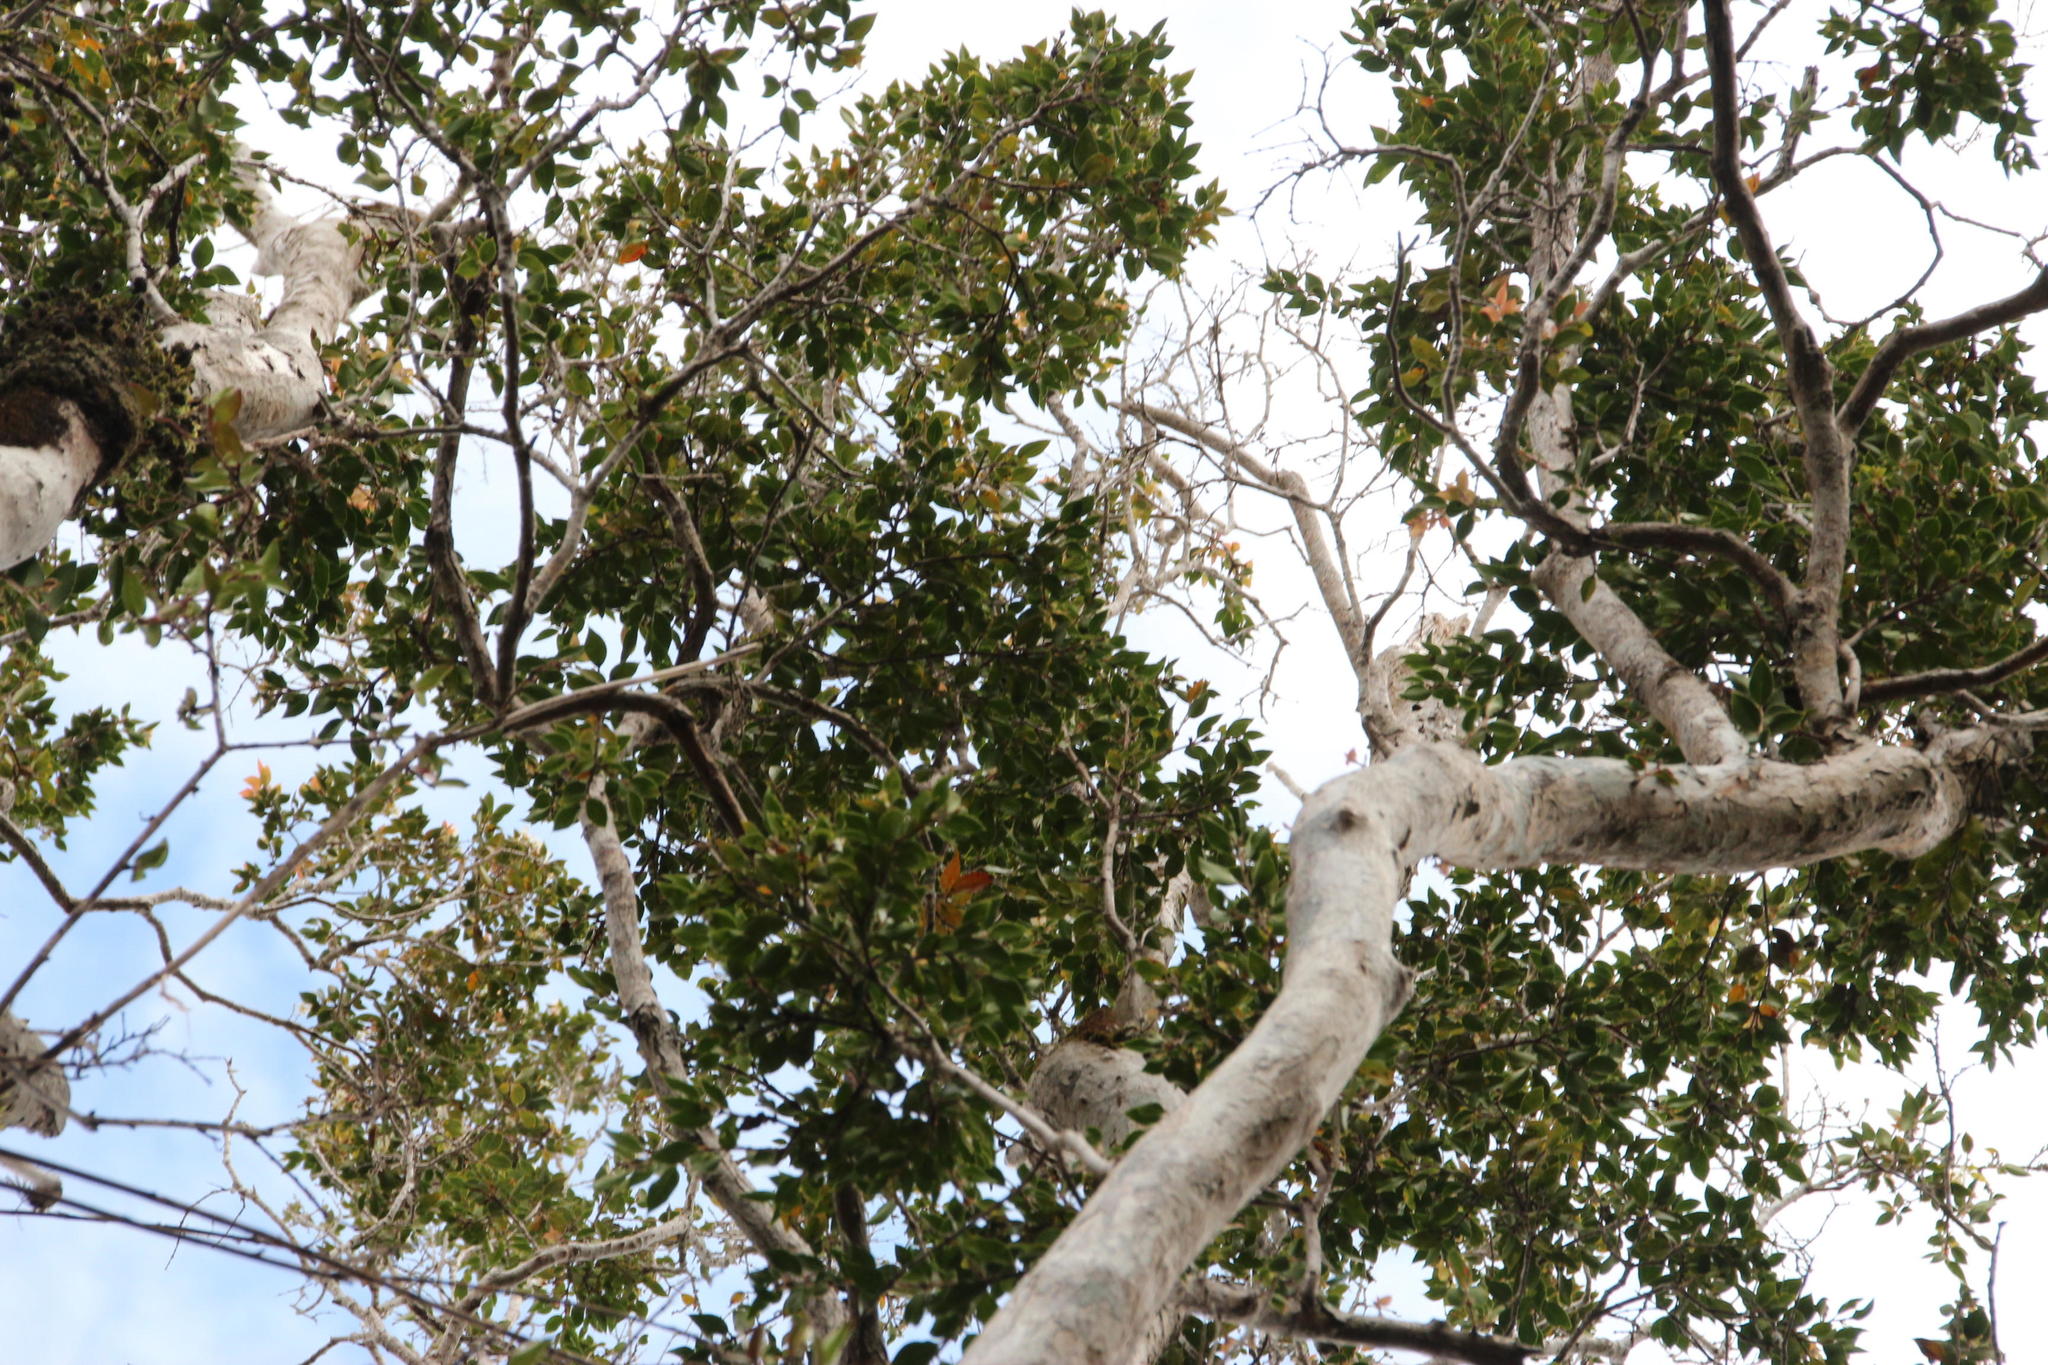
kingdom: Plantae
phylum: Tracheophyta
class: Magnoliopsida
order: Myrtales
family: Myrtaceae
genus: Amomyrtus
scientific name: Amomyrtus luma
